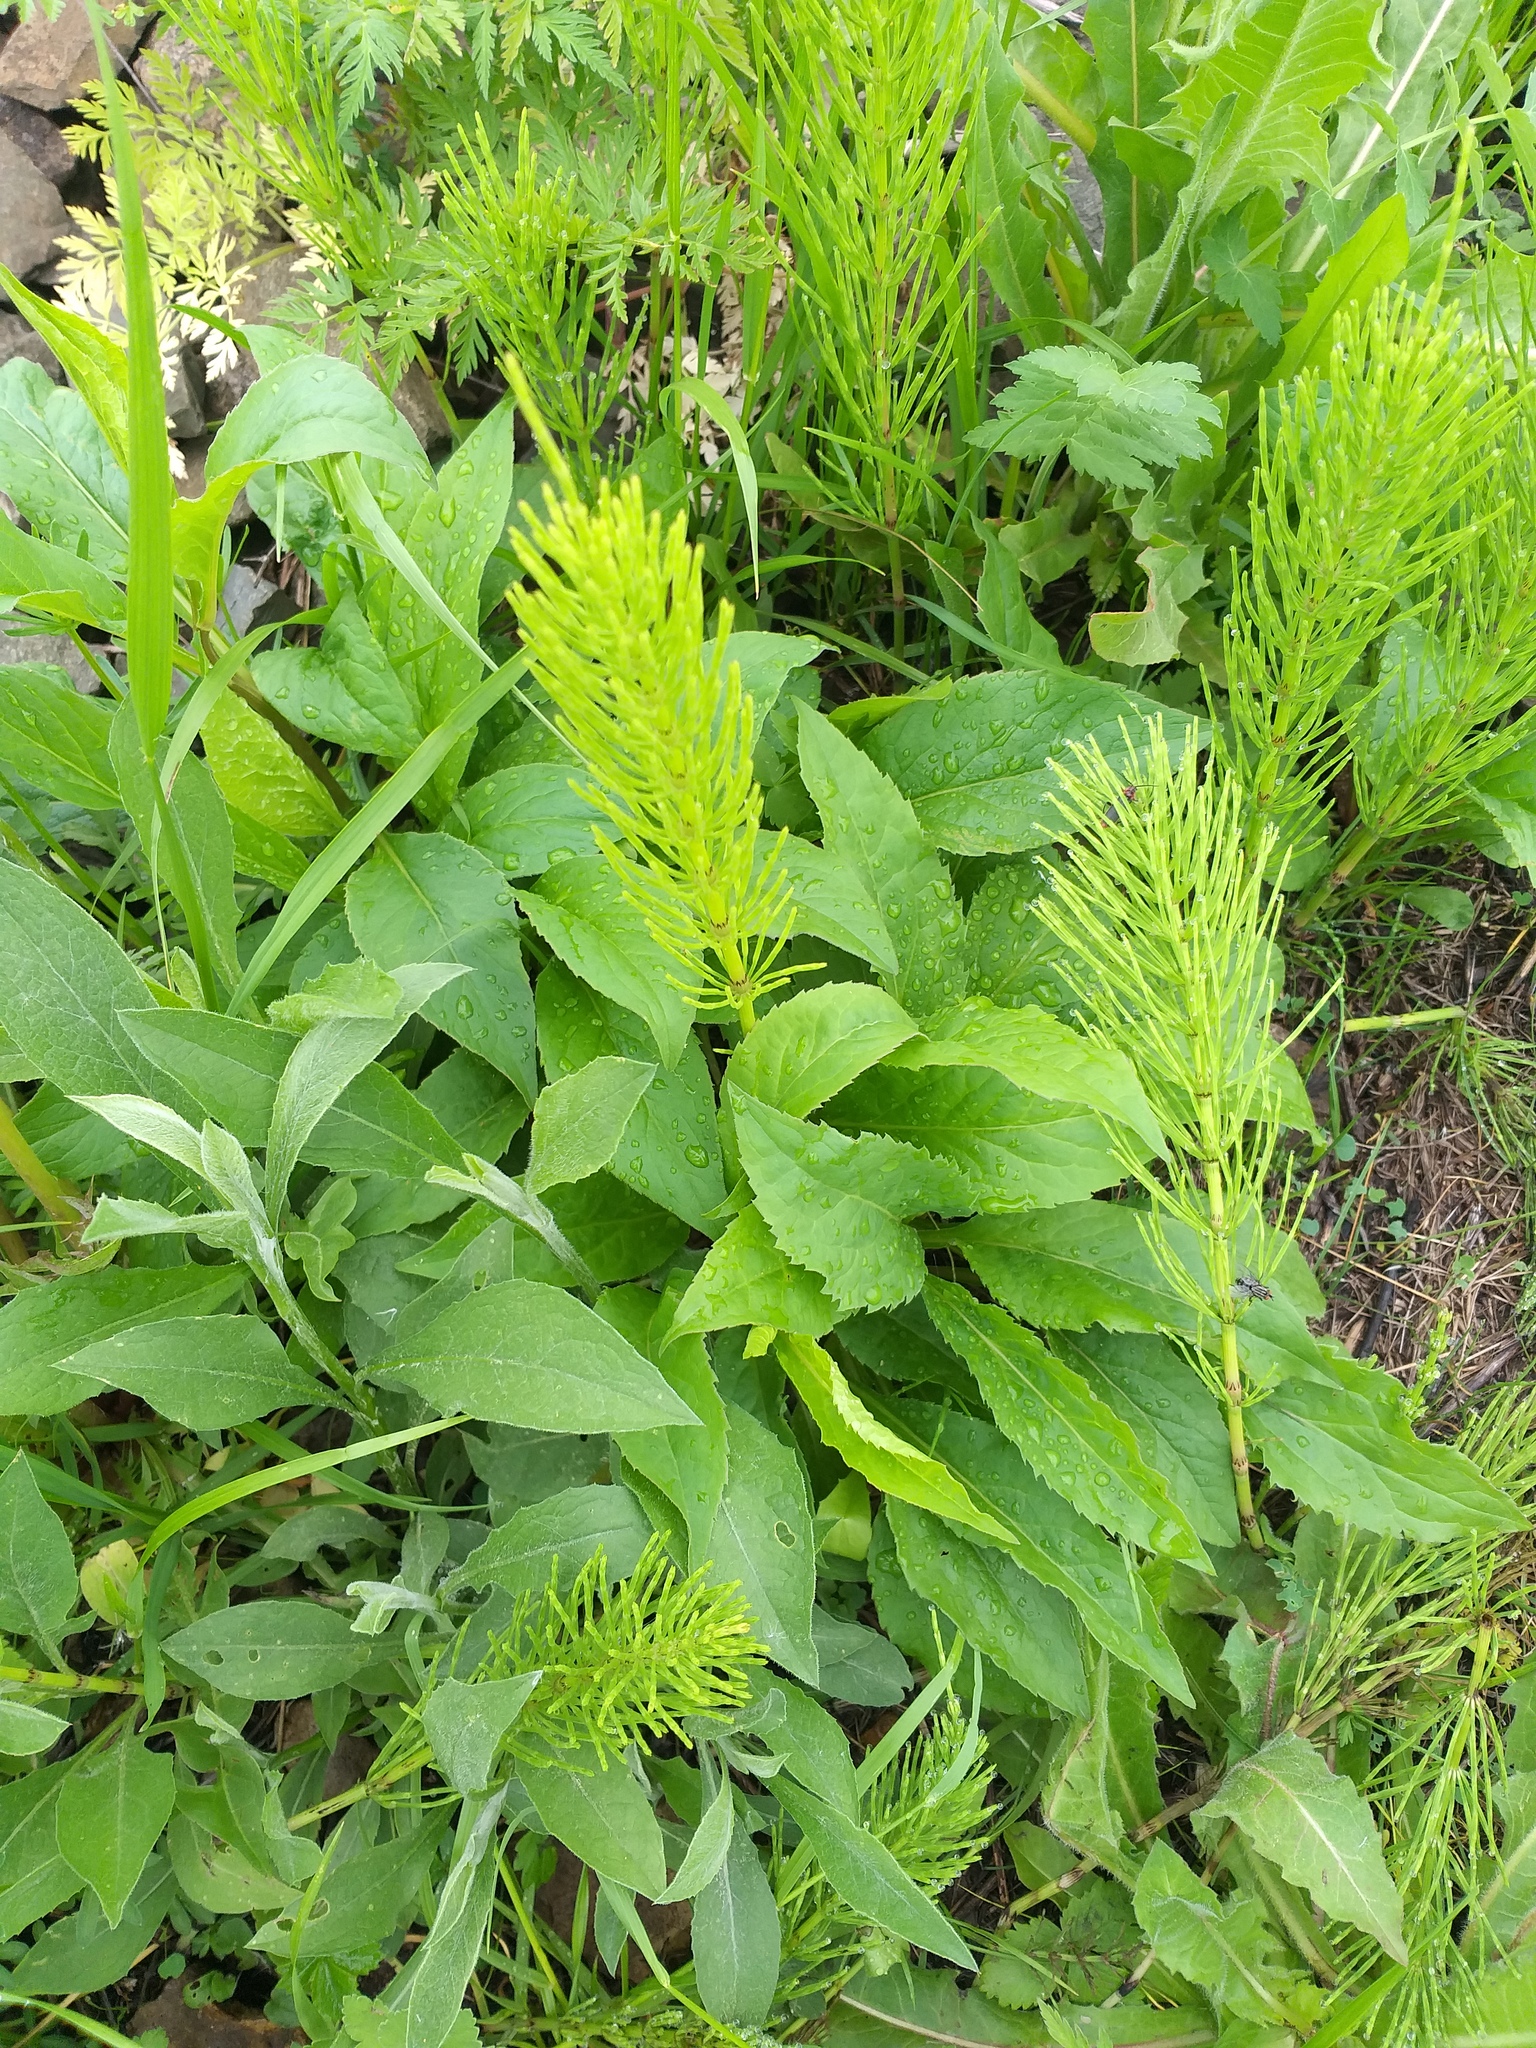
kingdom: Plantae
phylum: Tracheophyta
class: Magnoliopsida
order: Asterales
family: Asteraceae
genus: Solidago
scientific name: Solidago virgaurea
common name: Goldenrod
